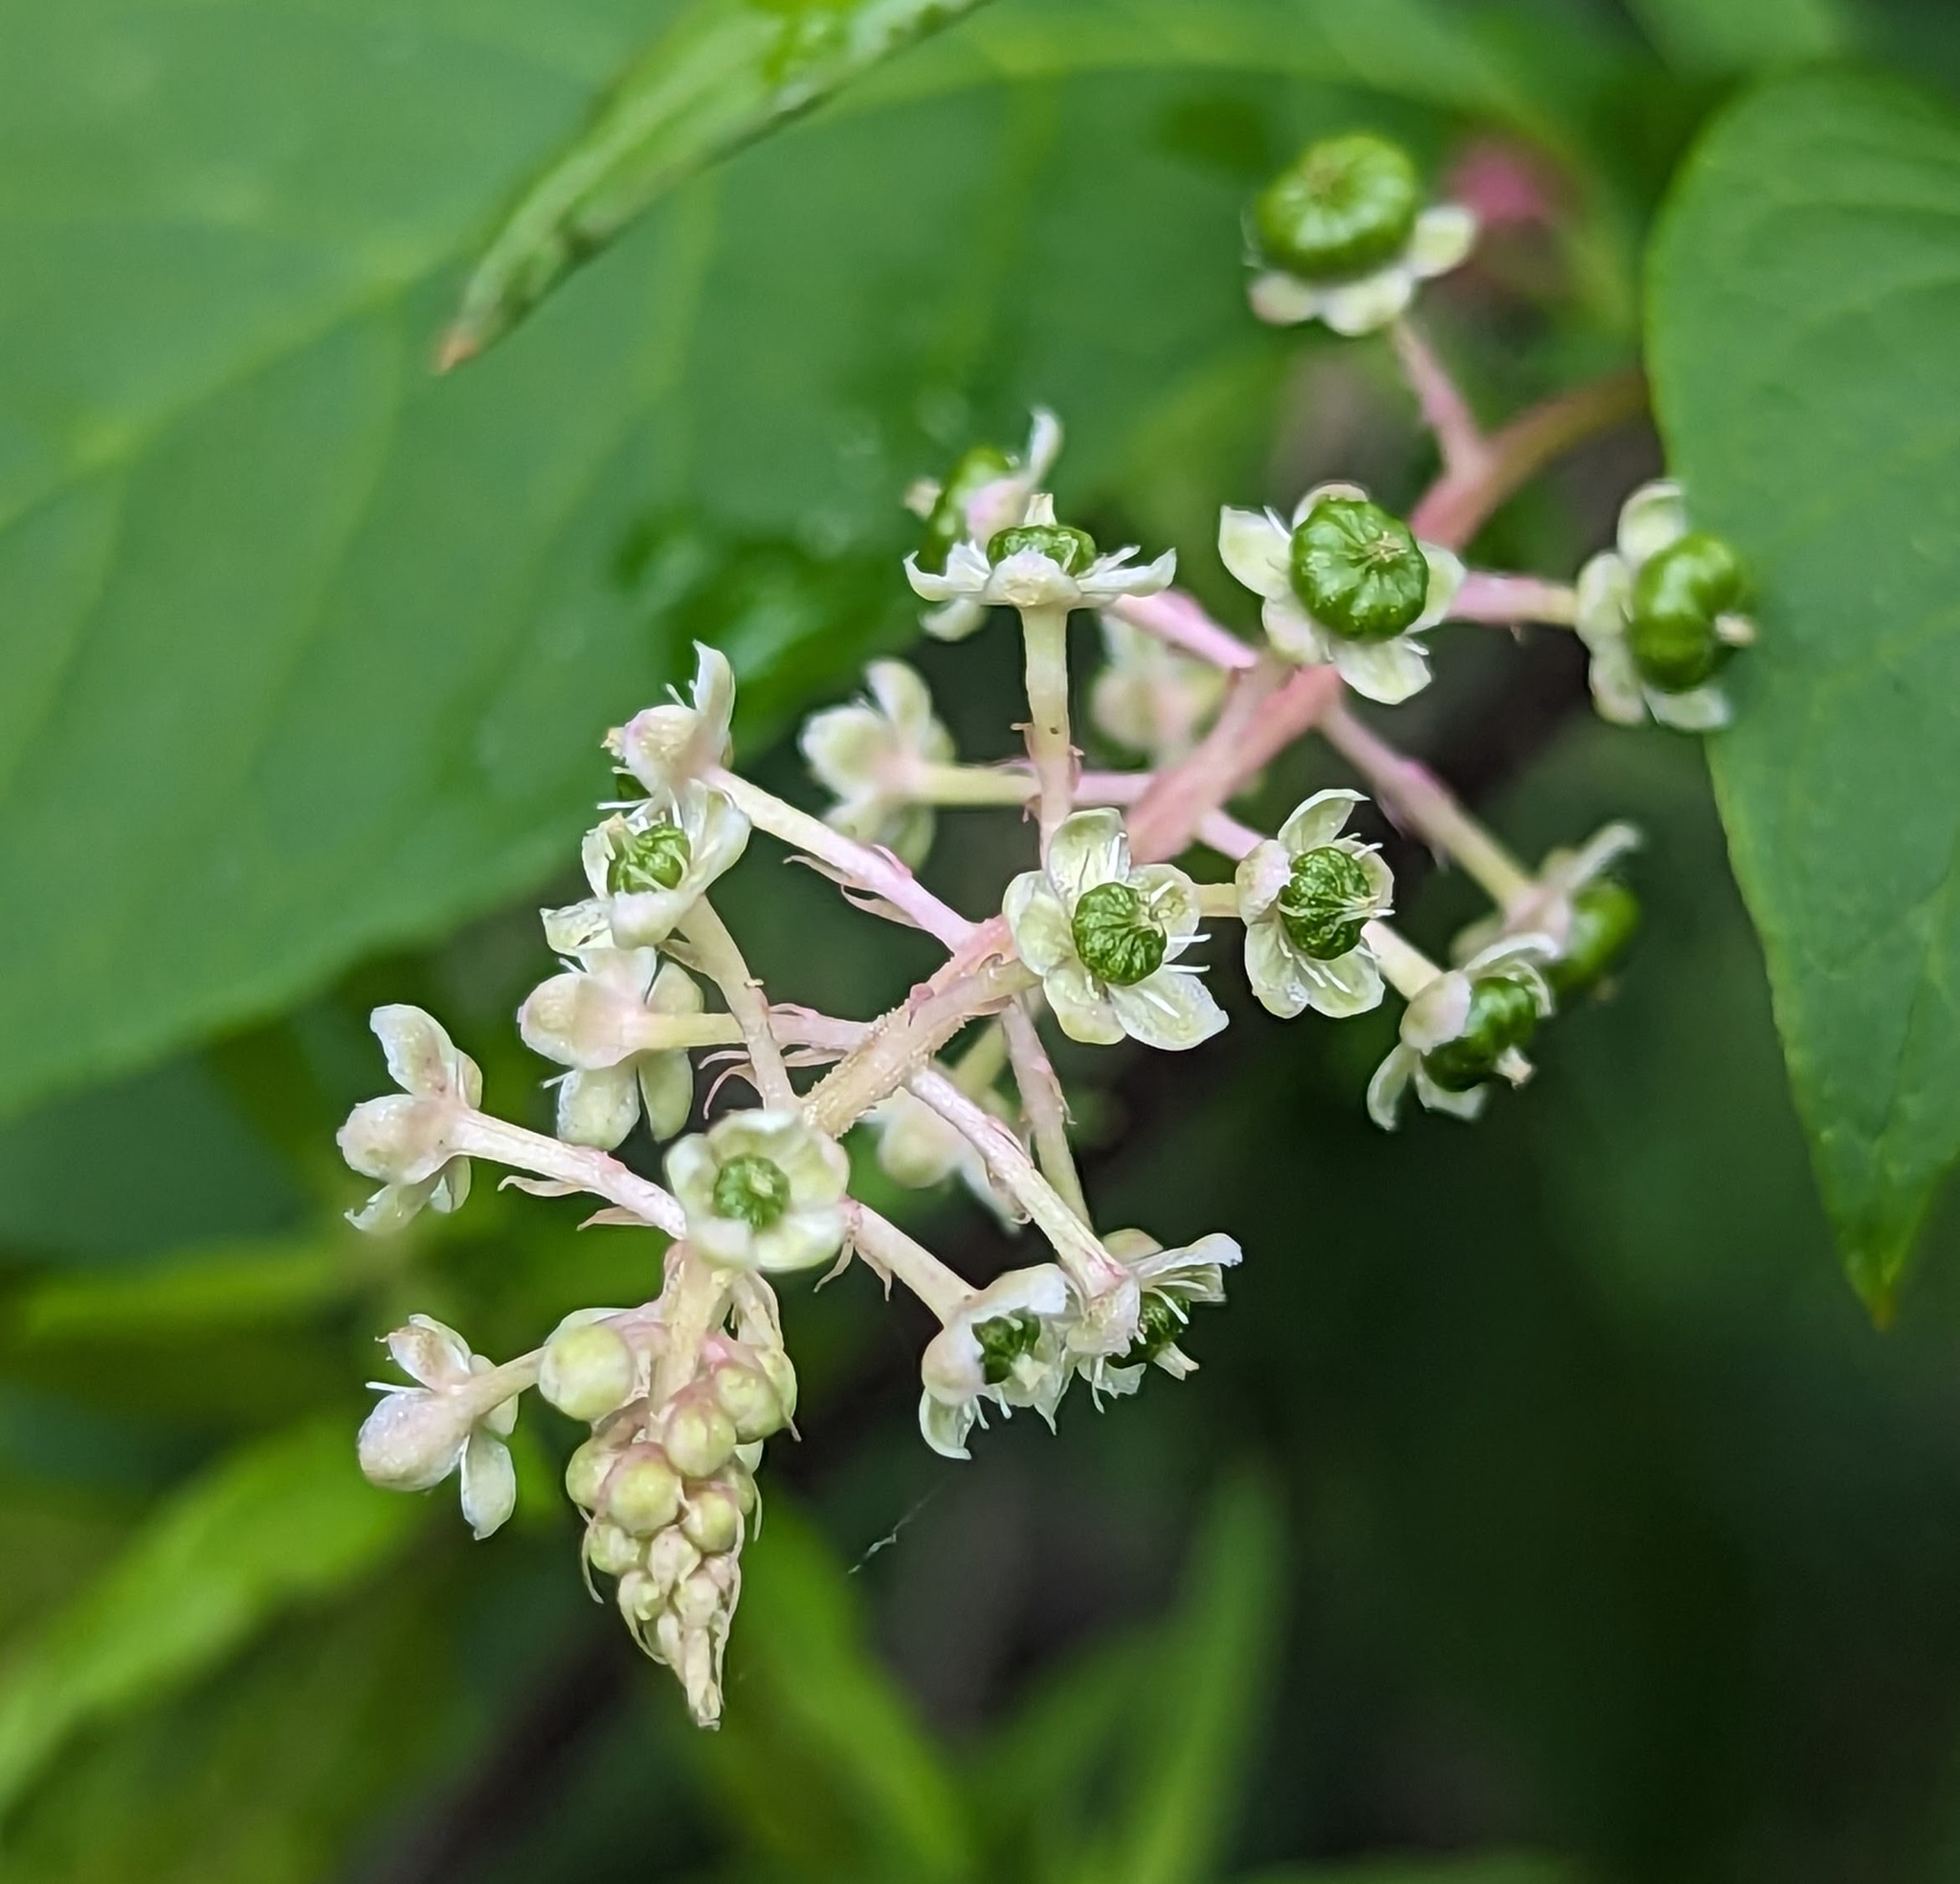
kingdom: Plantae
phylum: Tracheophyta
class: Magnoliopsida
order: Caryophyllales
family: Phytolaccaceae
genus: Phytolacca
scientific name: Phytolacca americana
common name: American pokeweed
